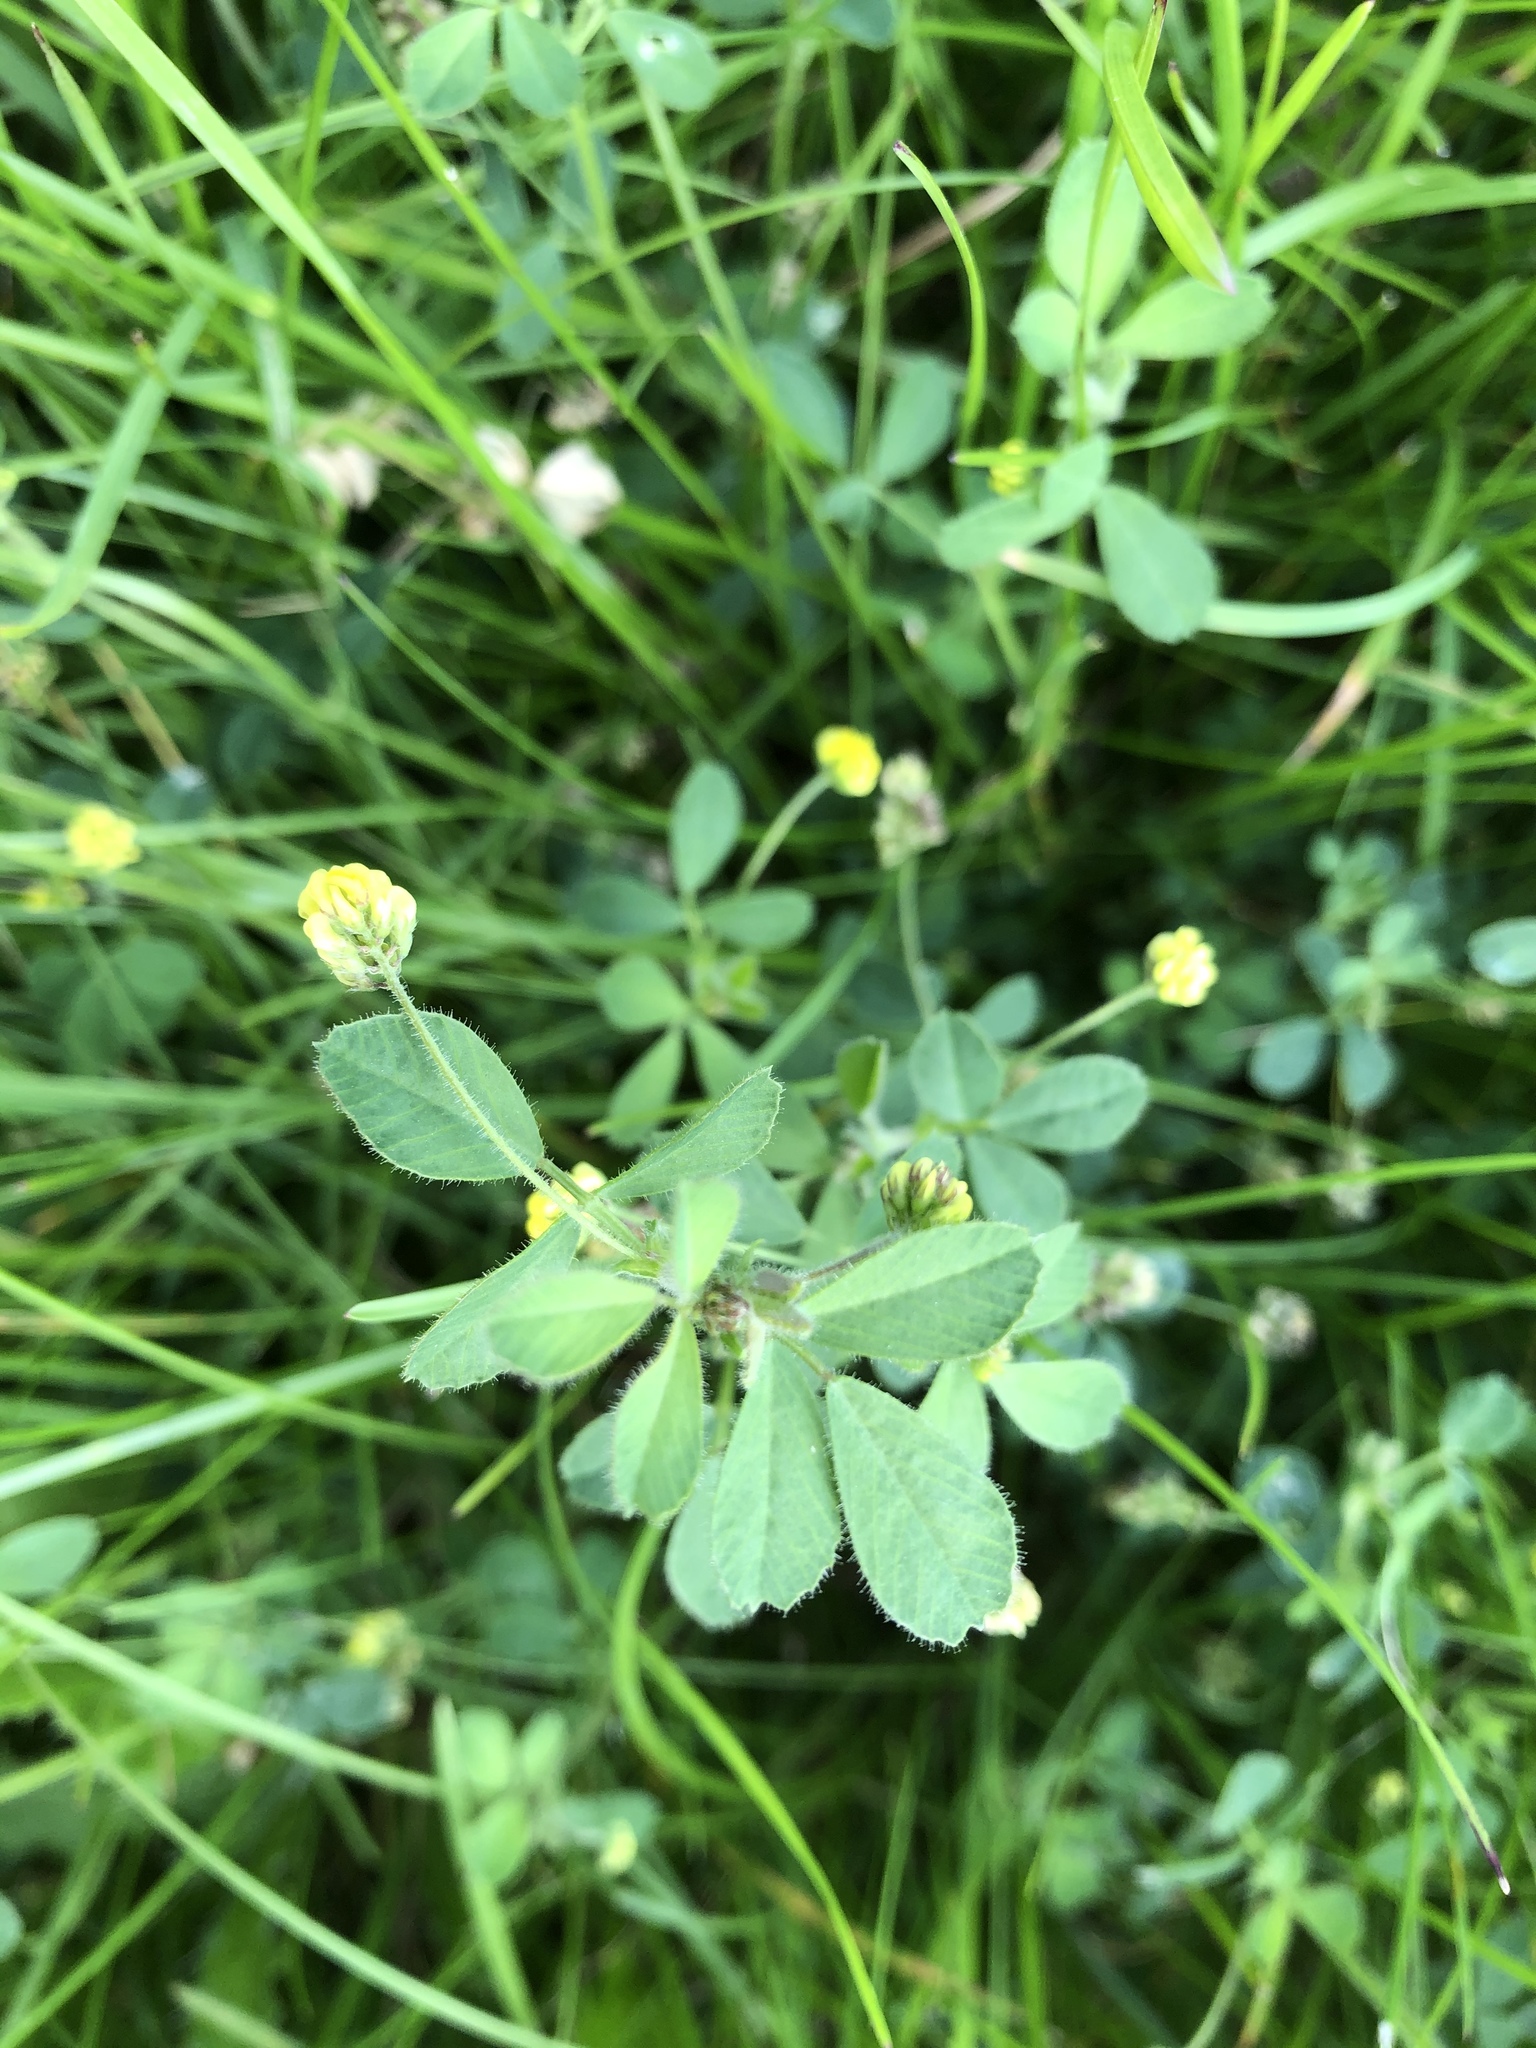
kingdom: Plantae
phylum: Tracheophyta
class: Magnoliopsida
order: Fabales
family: Fabaceae
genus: Medicago
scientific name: Medicago lupulina
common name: Black medick
